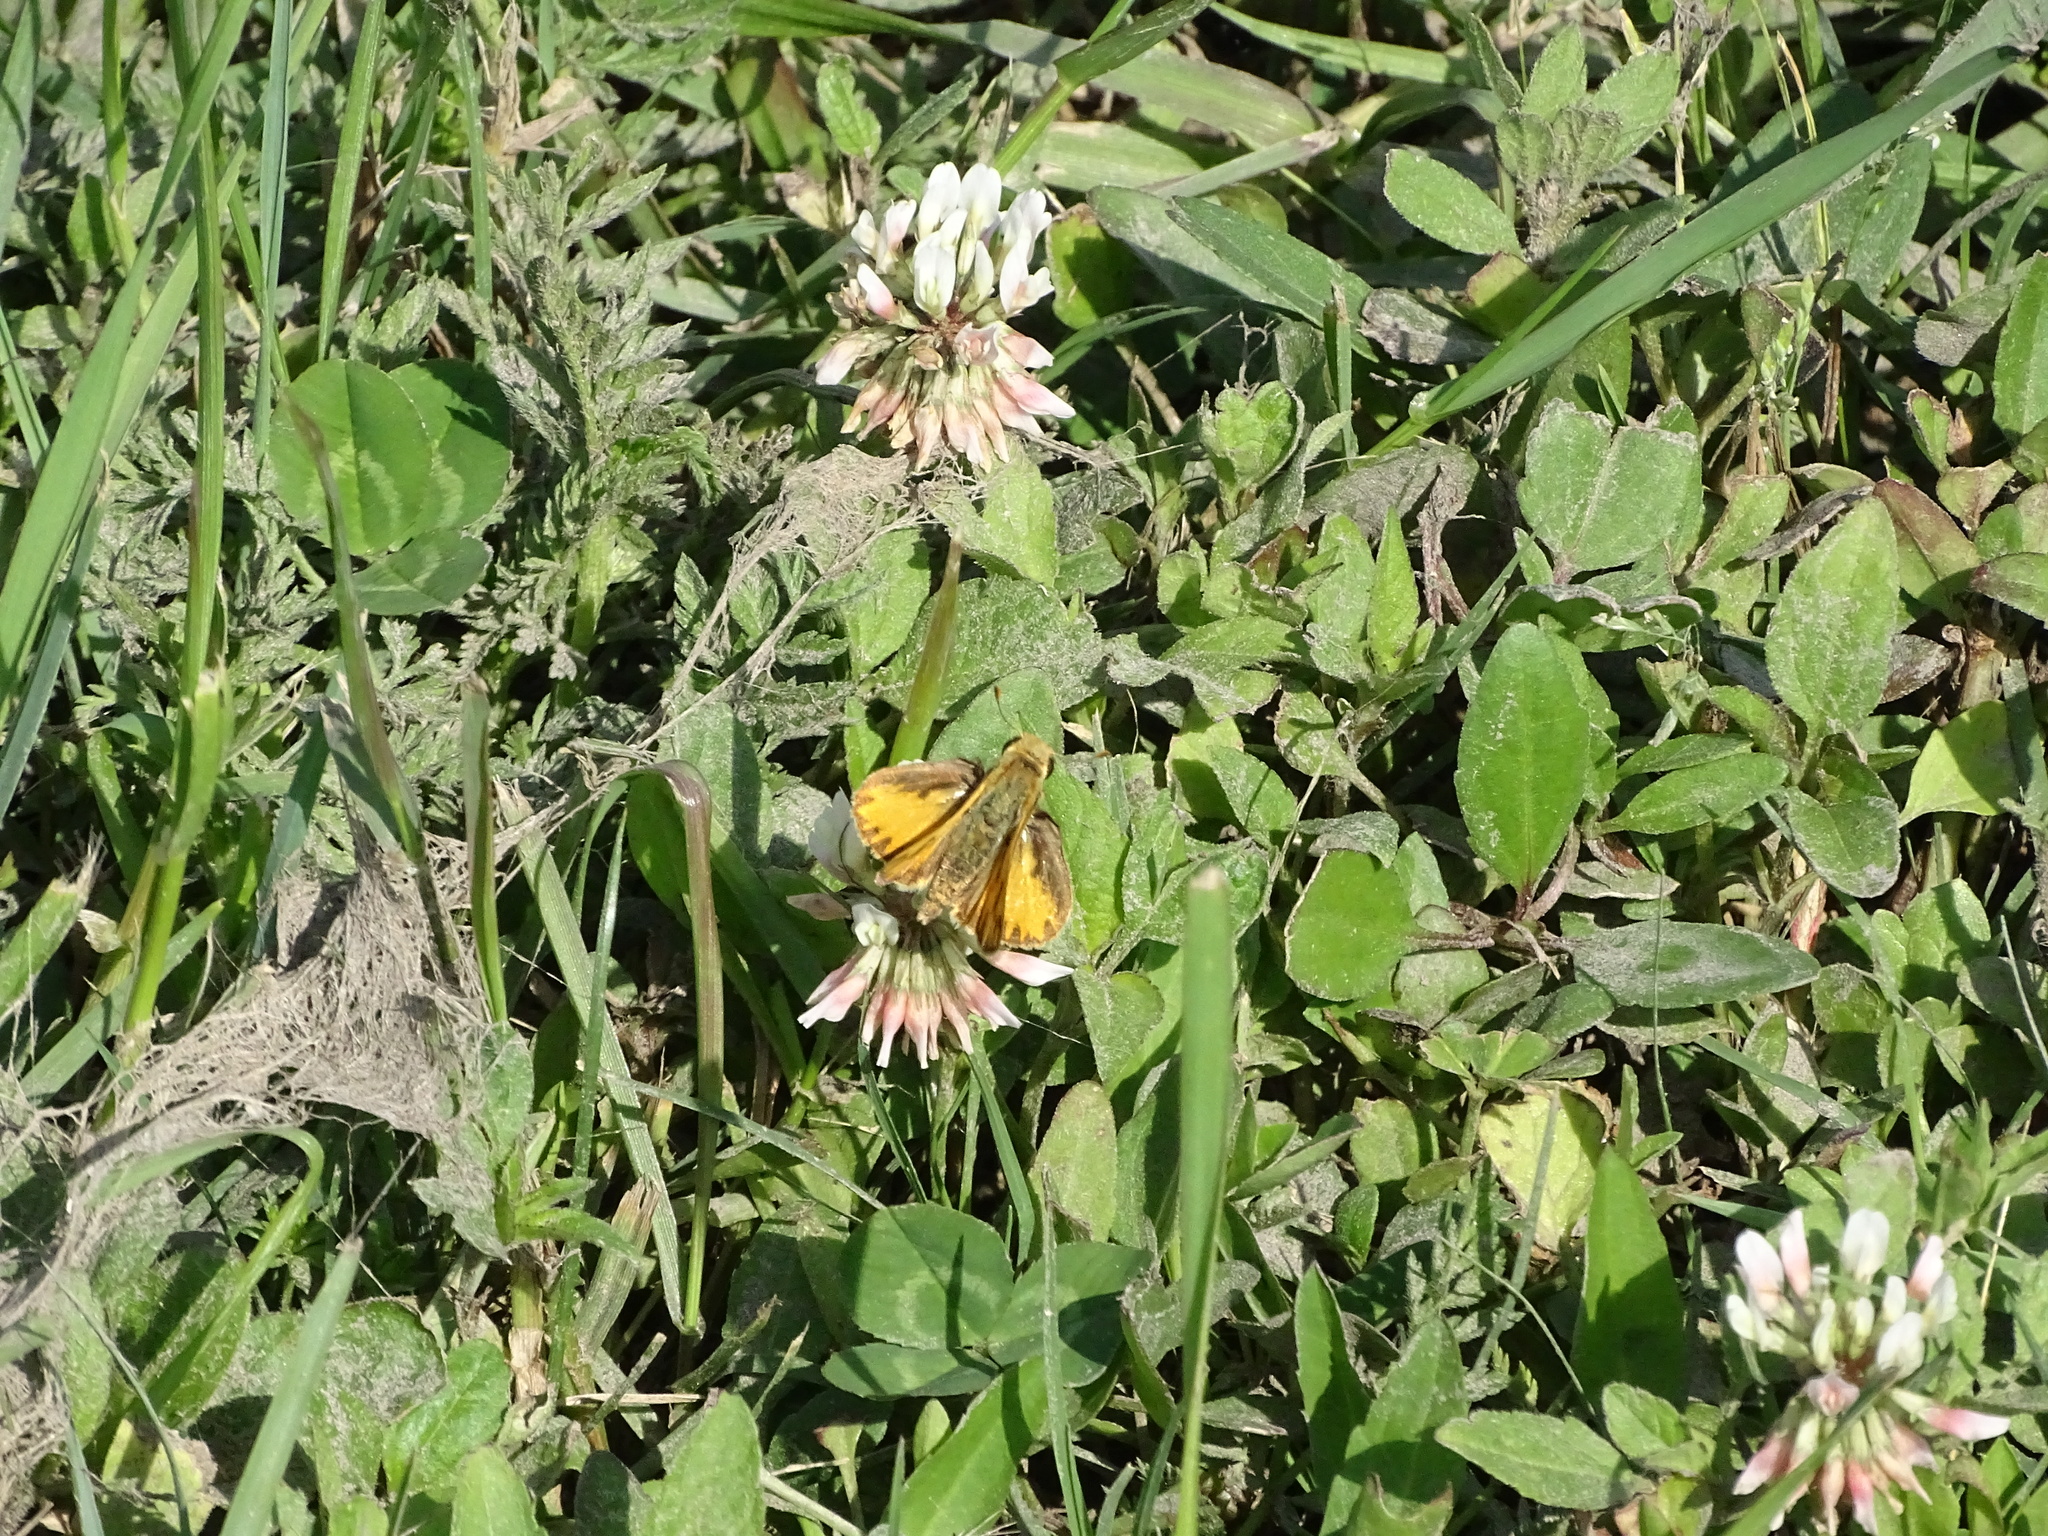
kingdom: Animalia
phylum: Arthropoda
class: Insecta
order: Lepidoptera
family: Hesperiidae
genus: Hylephila
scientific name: Hylephila phyleus
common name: Fiery skipper
